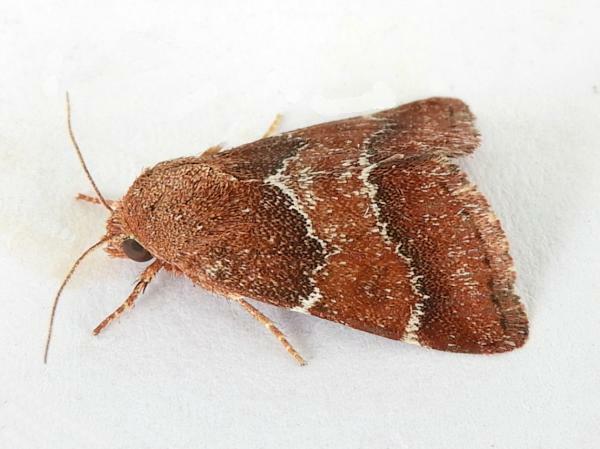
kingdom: Animalia
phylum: Arthropoda
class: Insecta
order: Lepidoptera
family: Noctuidae
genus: Schinia
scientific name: Schinia saturata
